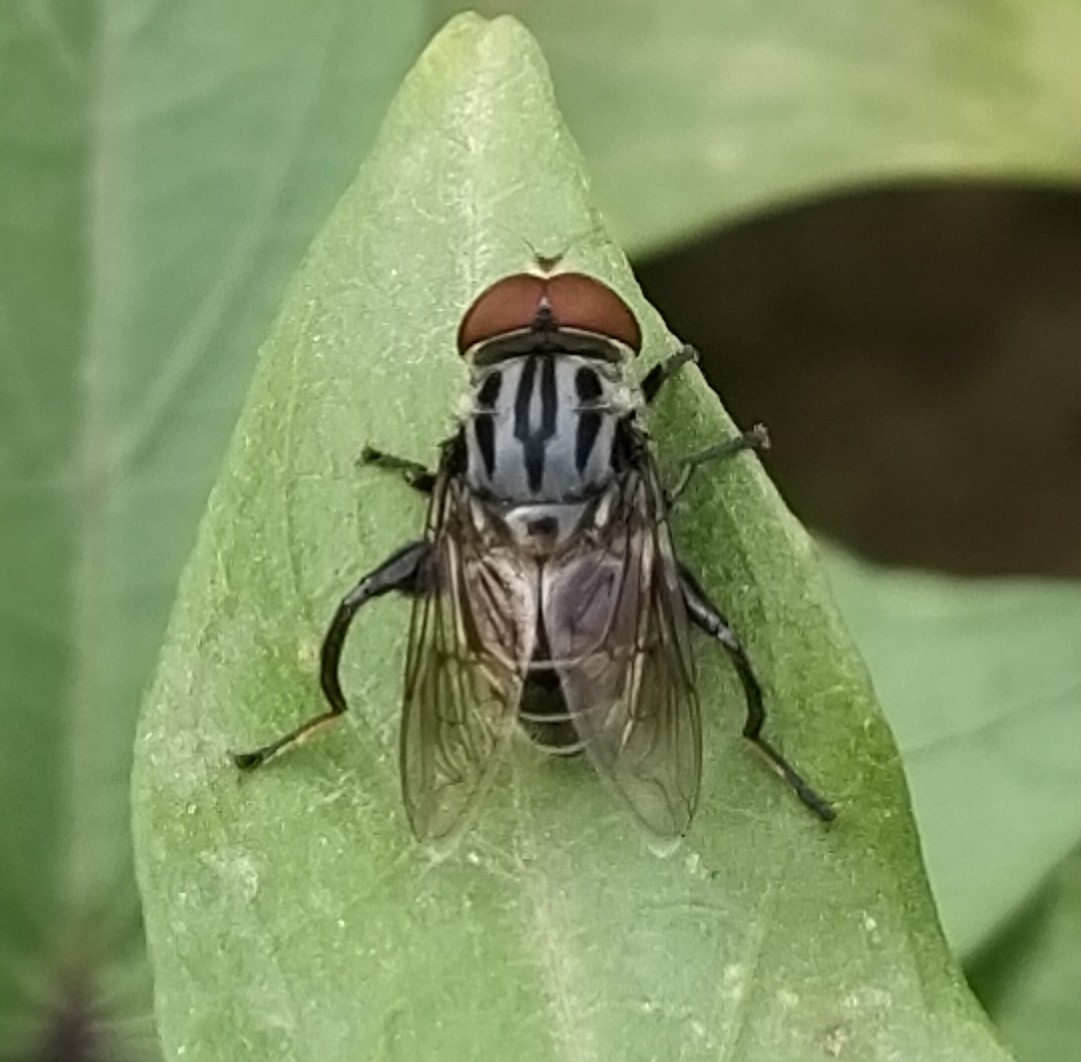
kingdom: Animalia
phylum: Arthropoda
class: Insecta
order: Diptera
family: Syrphidae
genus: Palpada
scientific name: Palpada furcata
